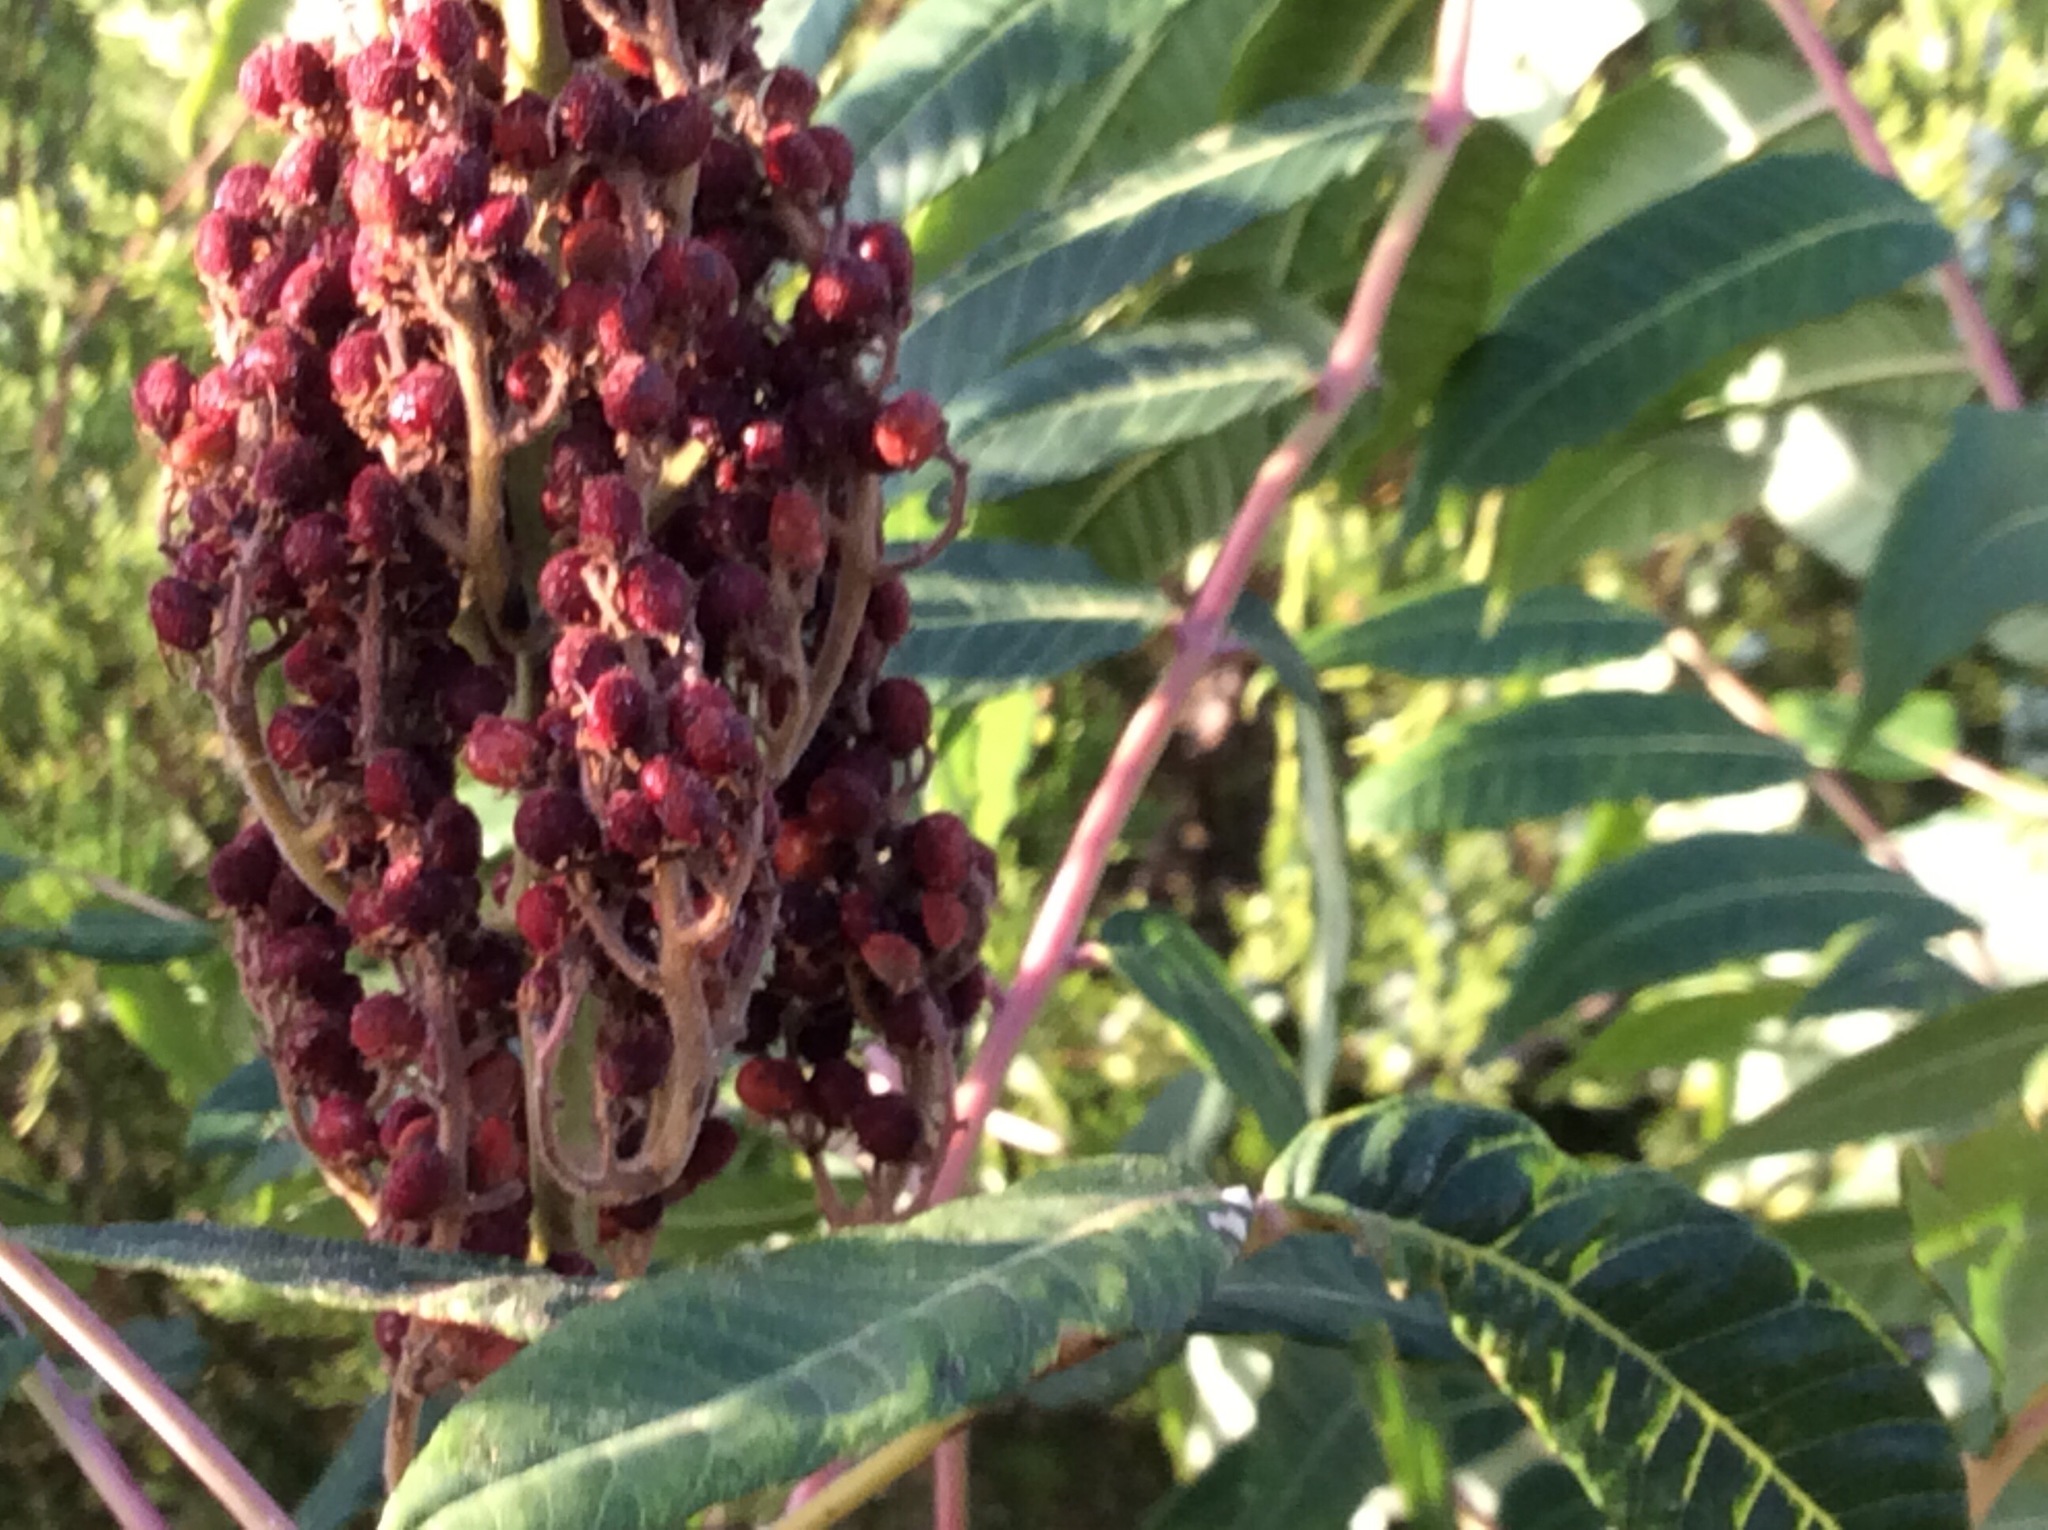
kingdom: Plantae
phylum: Tracheophyta
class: Magnoliopsida
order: Sapindales
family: Anacardiaceae
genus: Rhus
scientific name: Rhus glabra
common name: Scarlet sumac
